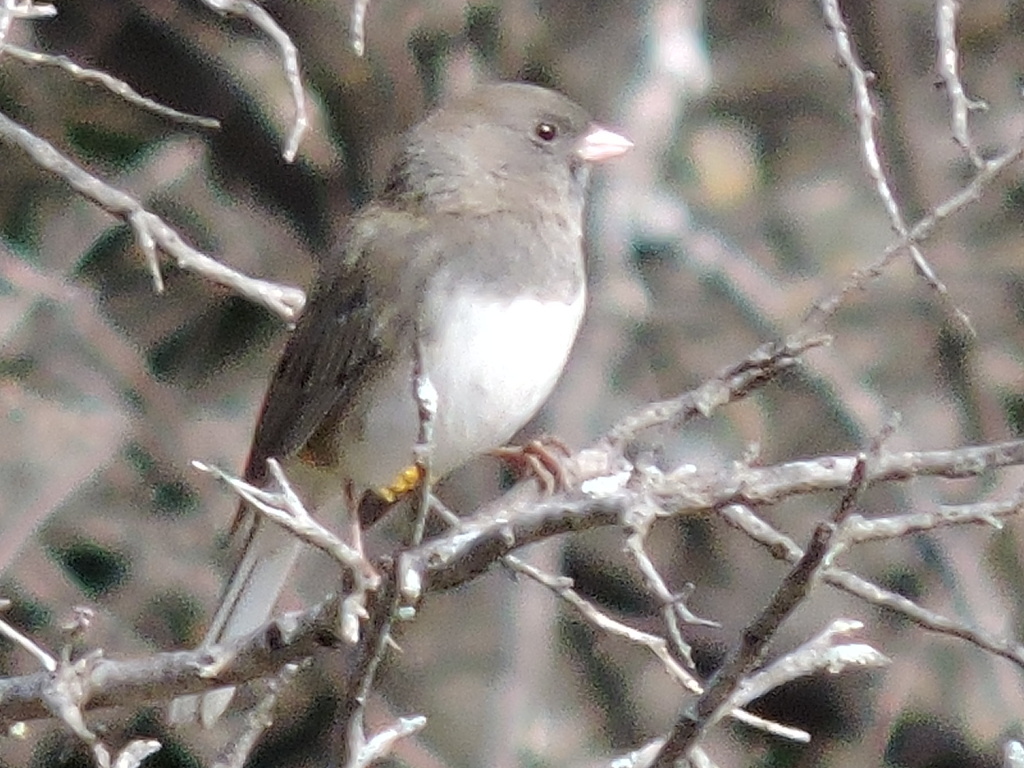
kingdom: Animalia
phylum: Chordata
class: Aves
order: Passeriformes
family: Passerellidae
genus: Junco
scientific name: Junco hyemalis
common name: Dark-eyed junco
